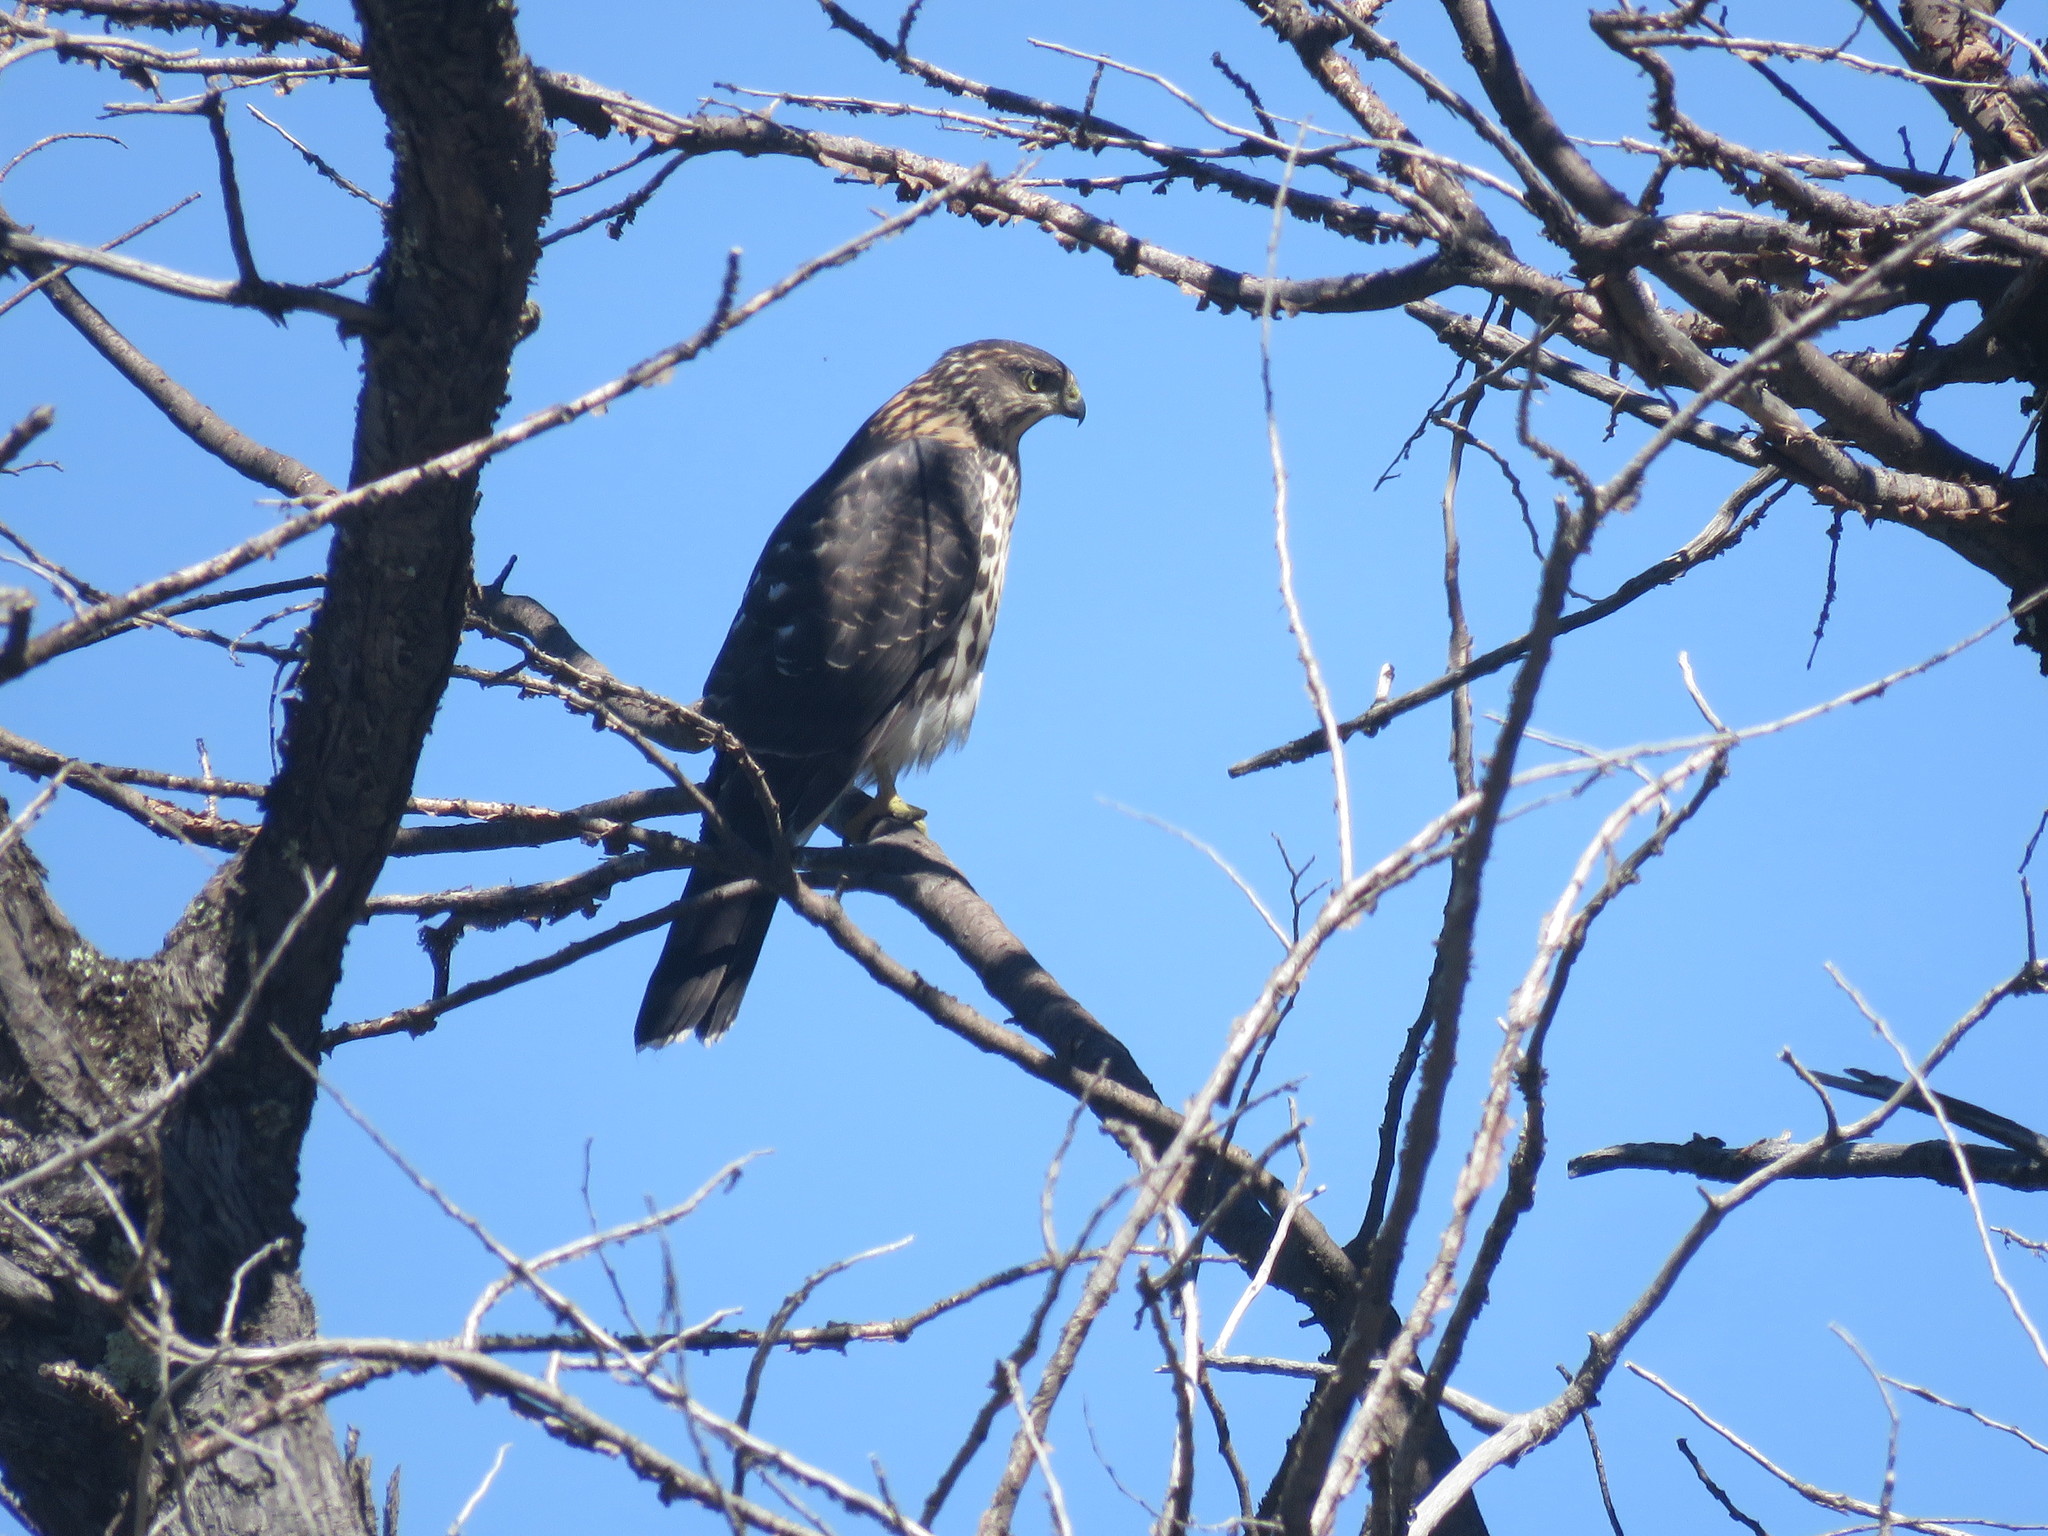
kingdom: Animalia
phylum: Chordata
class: Aves
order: Accipitriformes
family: Accipitridae
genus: Accipiter
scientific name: Accipiter chilensis
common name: Chilean hawk
